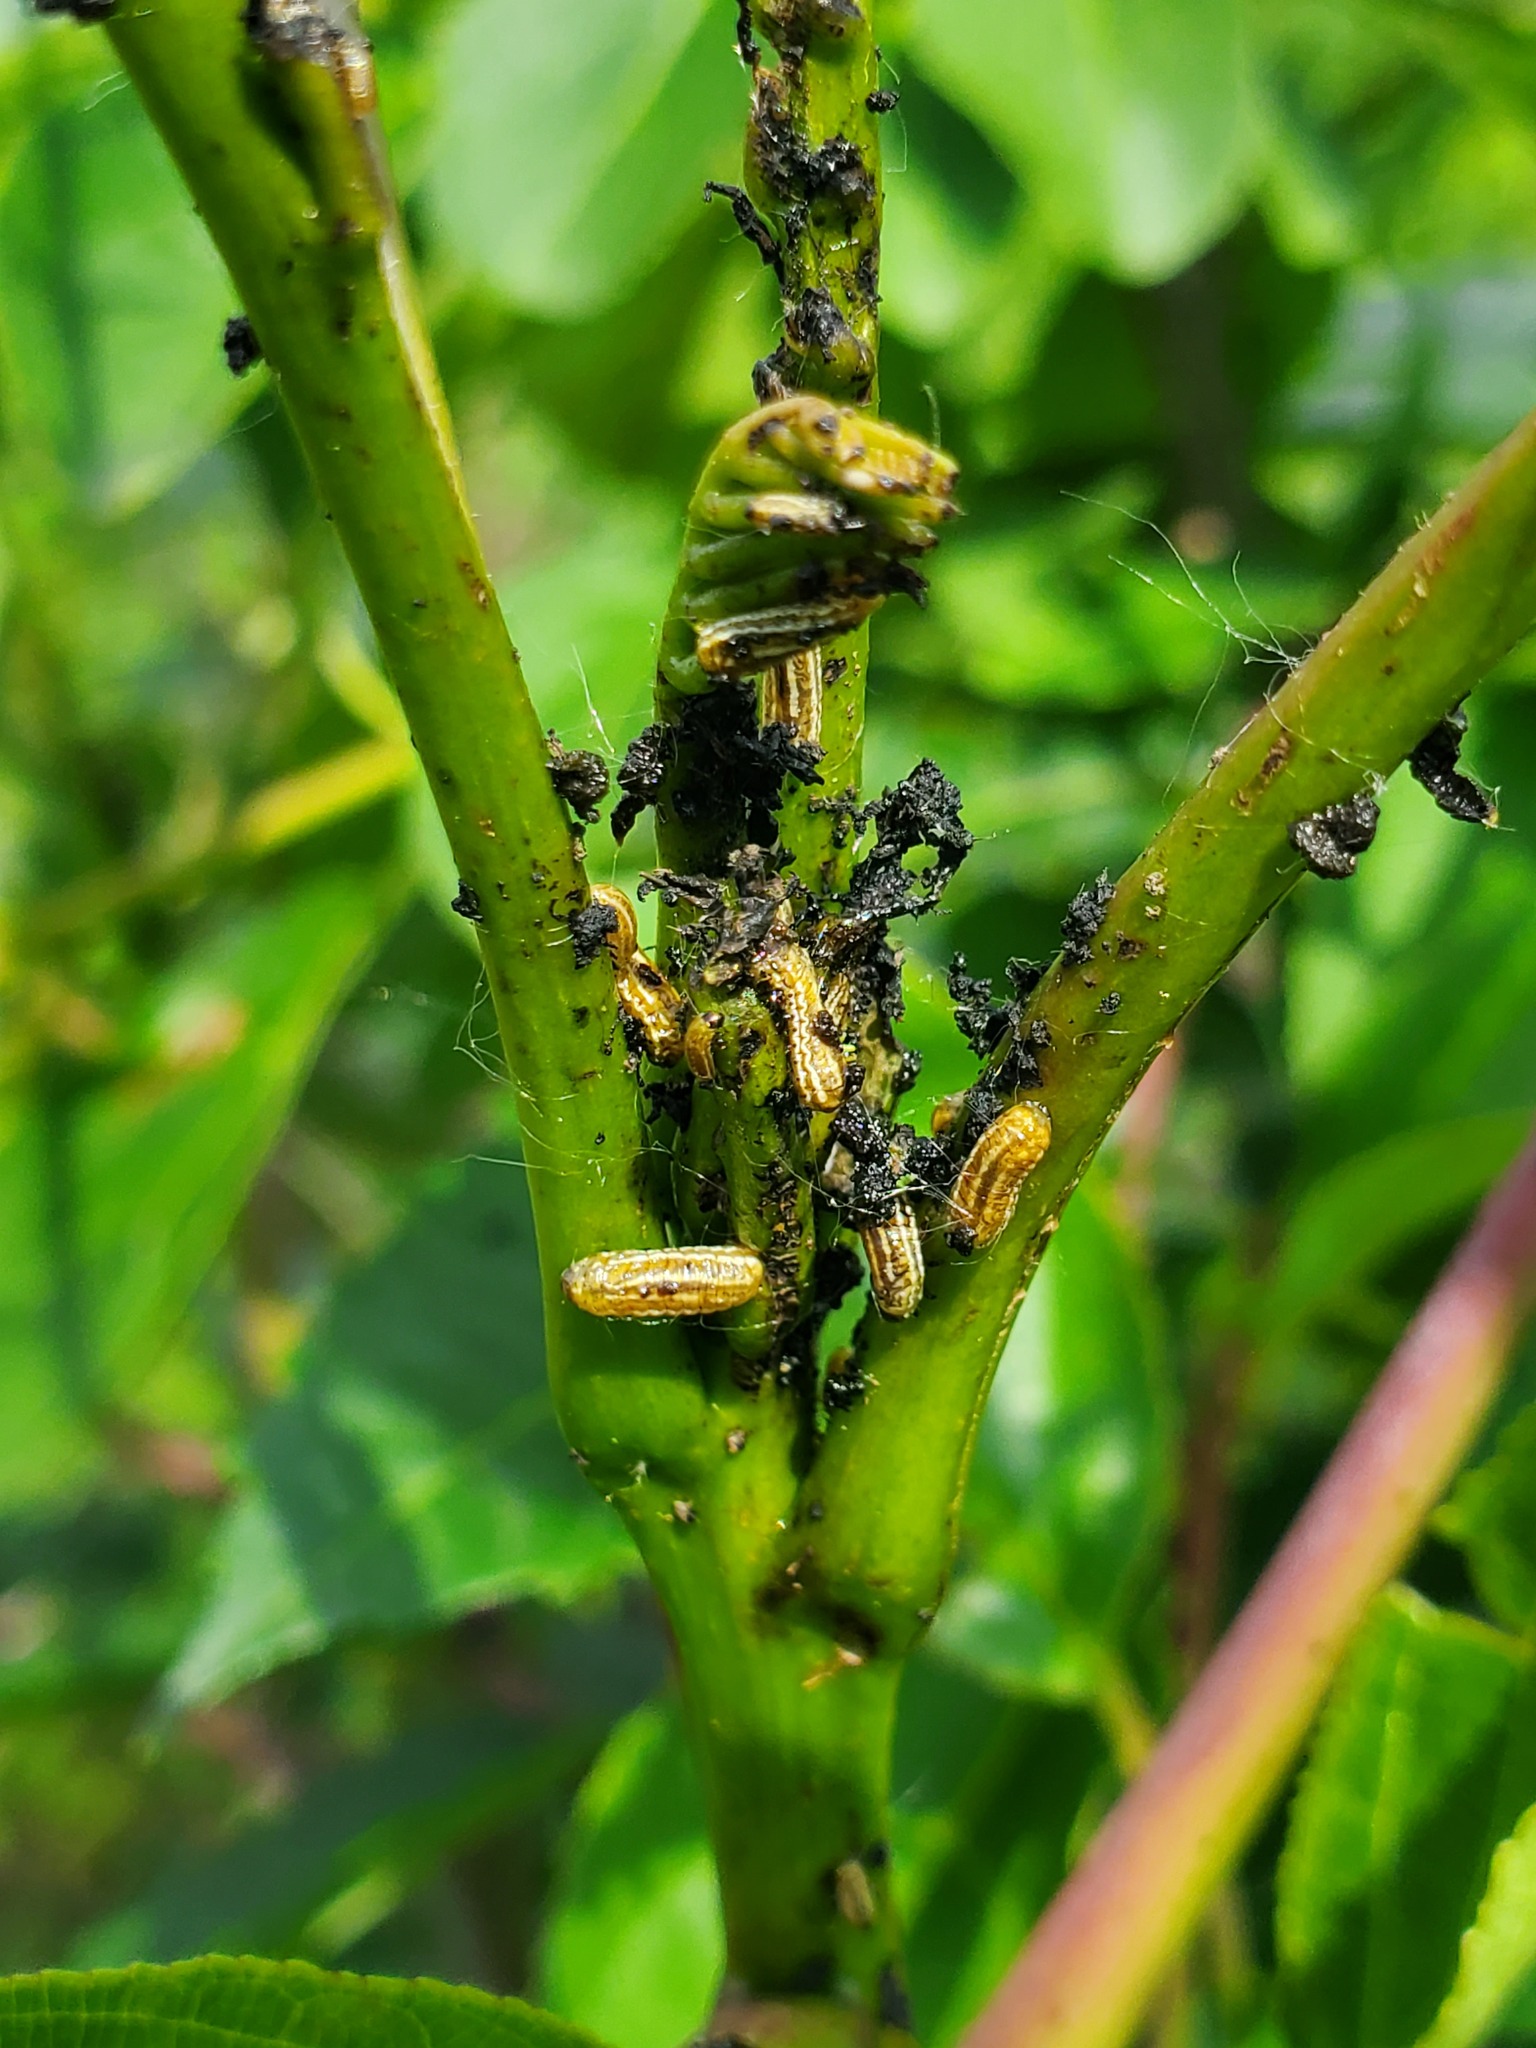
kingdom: Animalia
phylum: Arthropoda
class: Insecta
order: Coleoptera
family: Chrysomelidae
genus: Blepharida
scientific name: Blepharida rhois
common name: Sumac flea beetle
